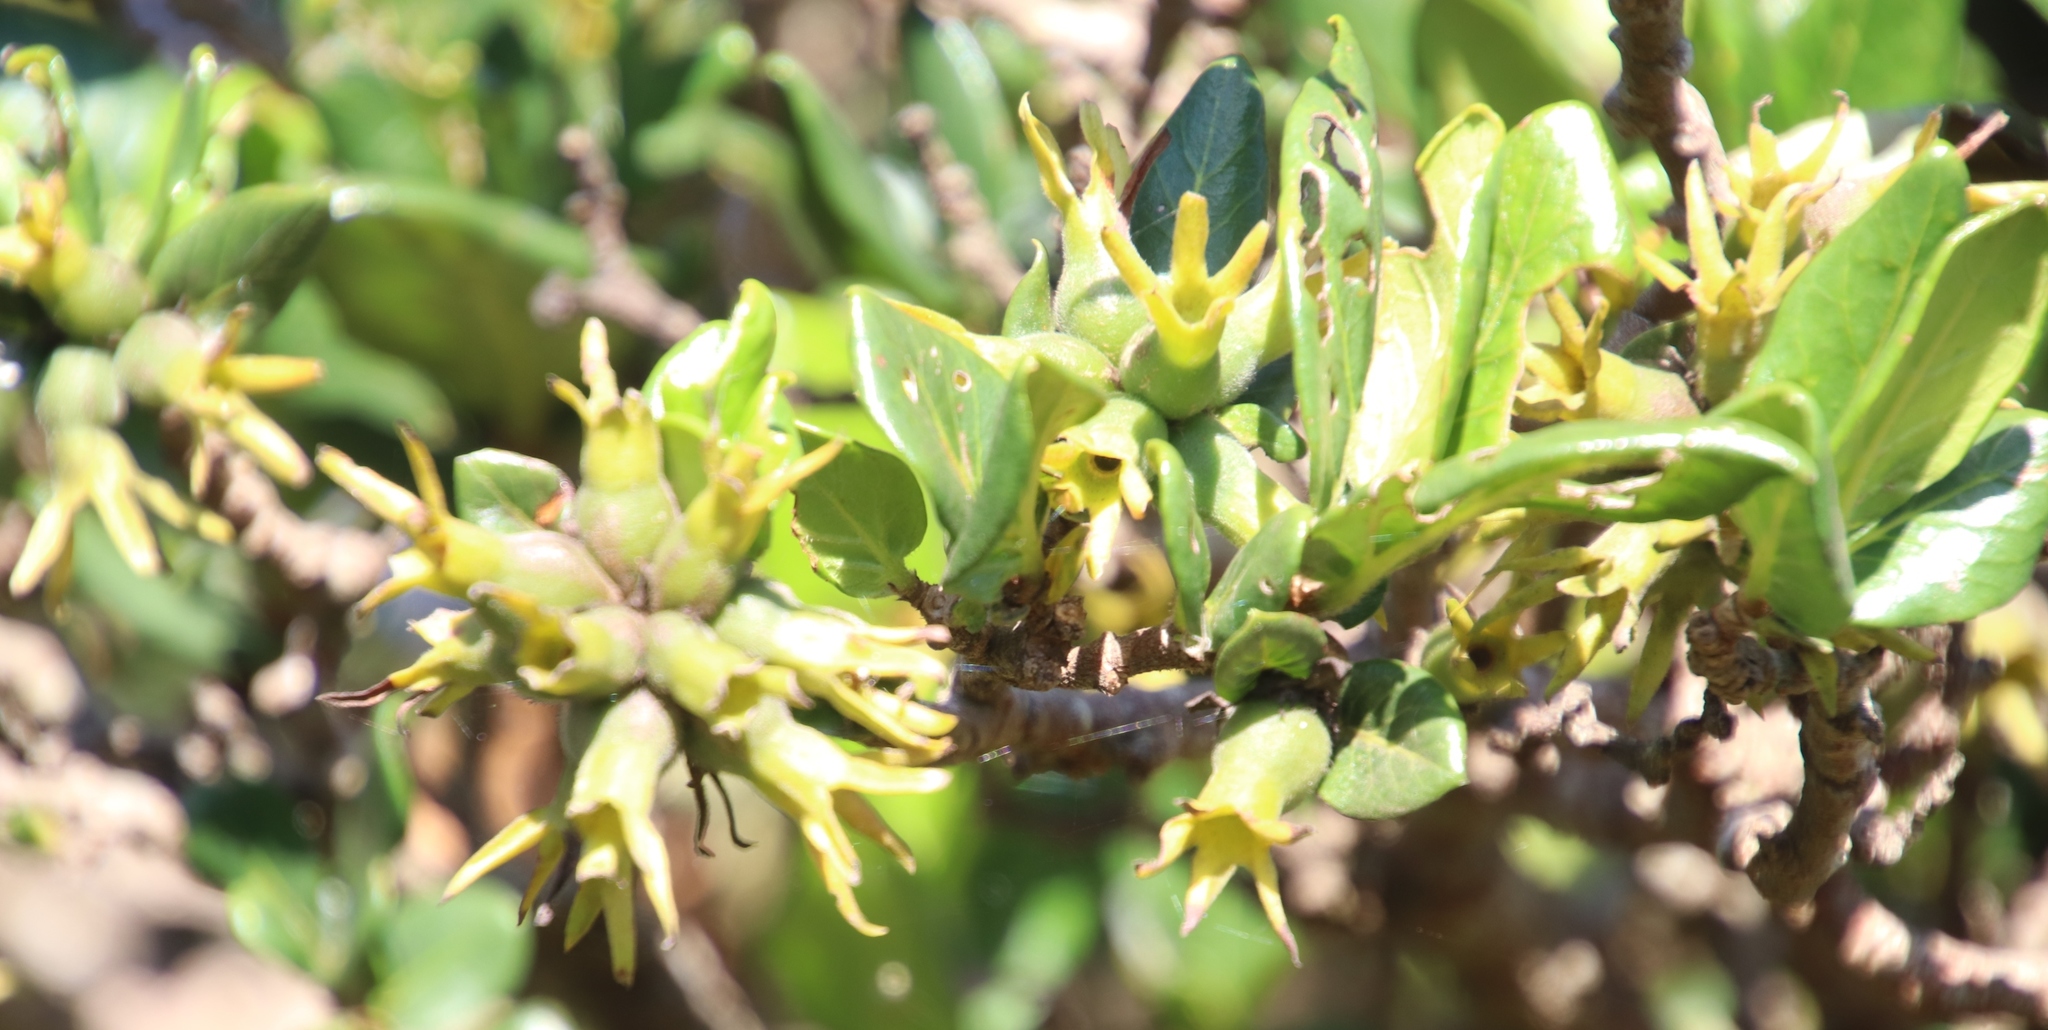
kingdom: Plantae
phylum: Tracheophyta
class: Magnoliopsida
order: Gentianales
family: Rubiaceae
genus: Burchellia
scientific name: Burchellia bubalina
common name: Wild pomegranate
